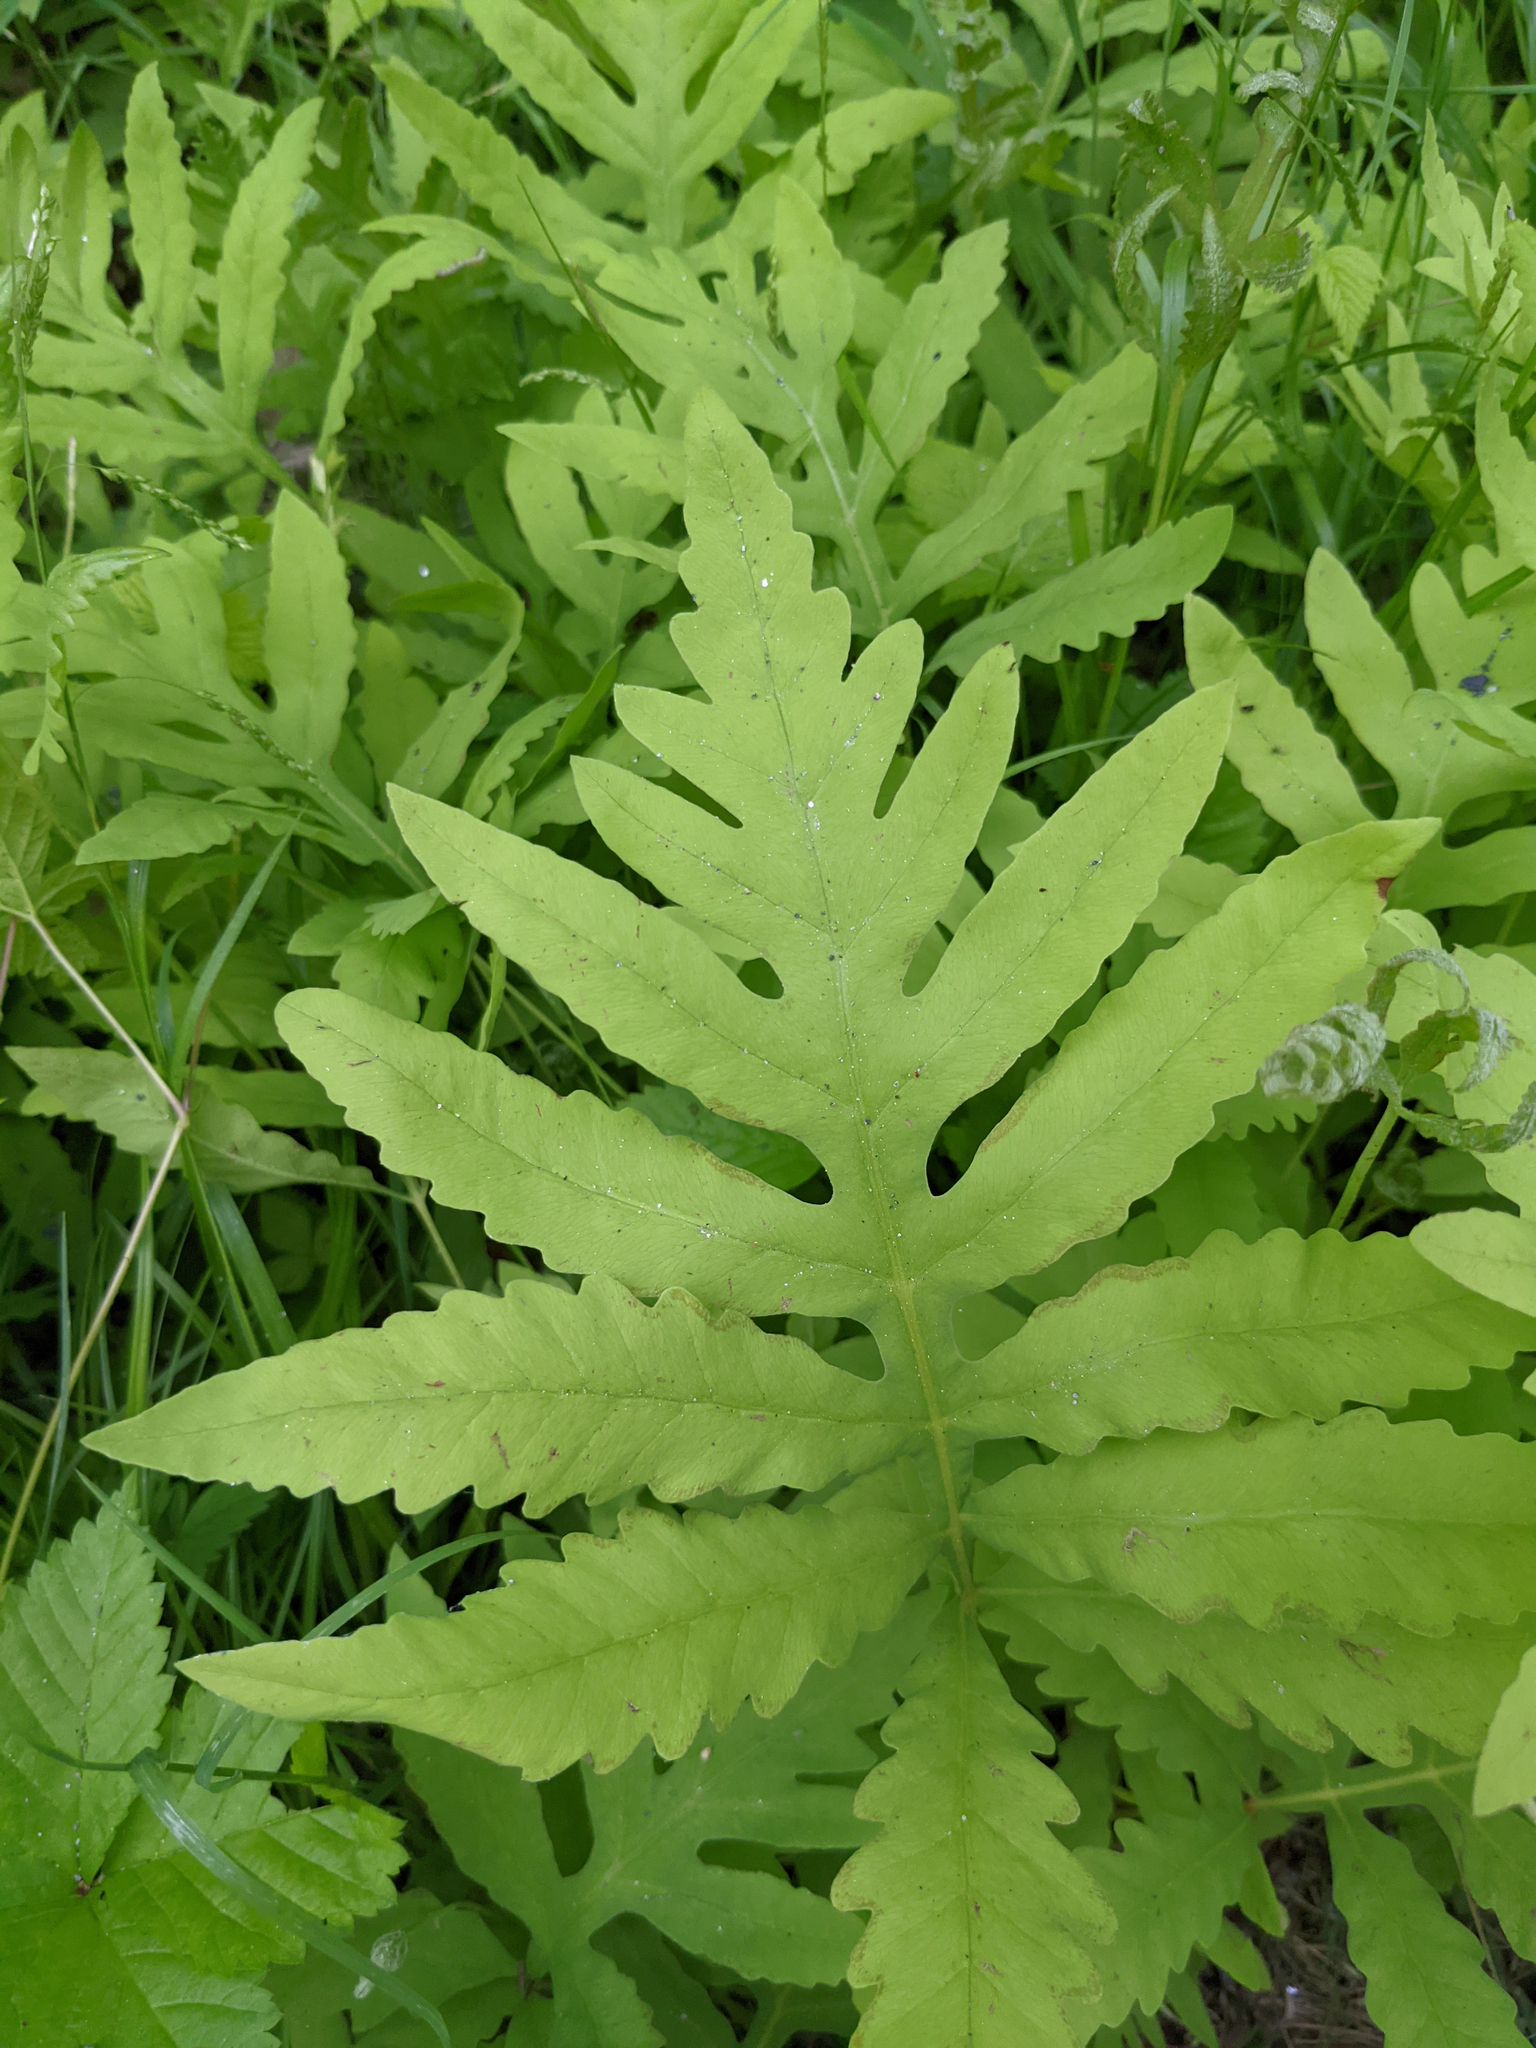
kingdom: Plantae
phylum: Tracheophyta
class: Polypodiopsida
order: Polypodiales
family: Onocleaceae
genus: Onoclea
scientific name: Onoclea sensibilis
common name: Sensitive fern
